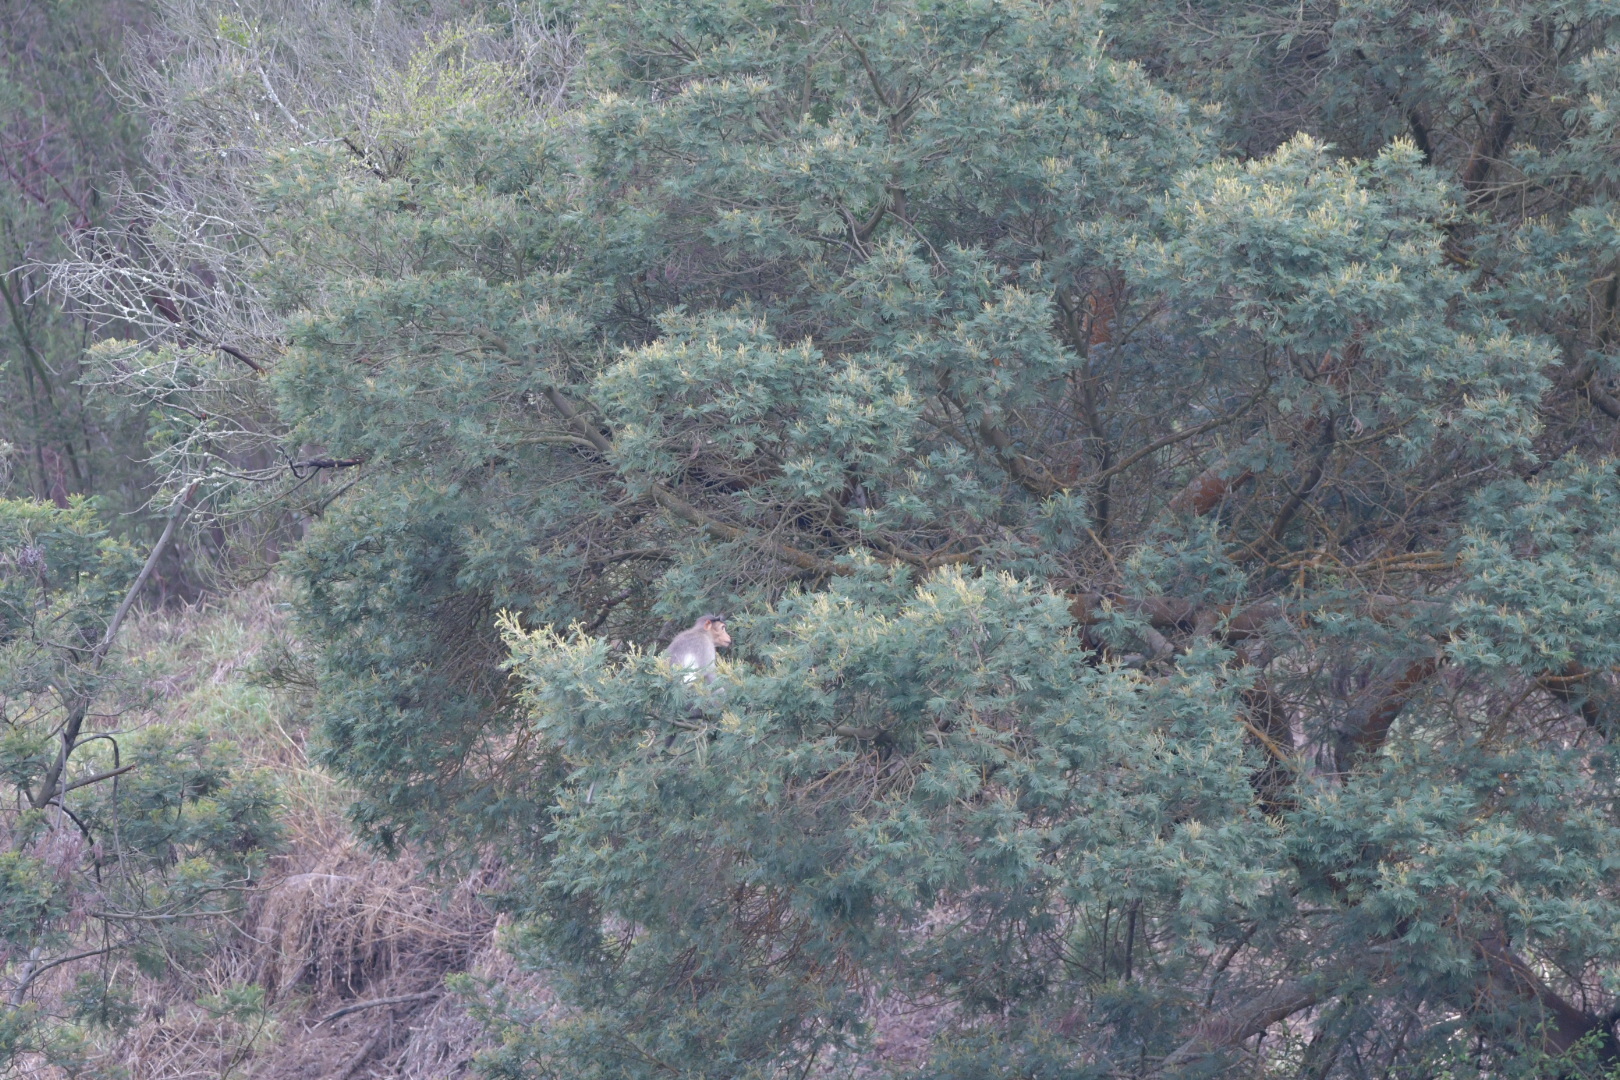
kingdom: Animalia
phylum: Chordata
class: Mammalia
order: Primates
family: Cercopithecidae
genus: Macaca
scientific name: Macaca radiata
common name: Bonnet macaque
